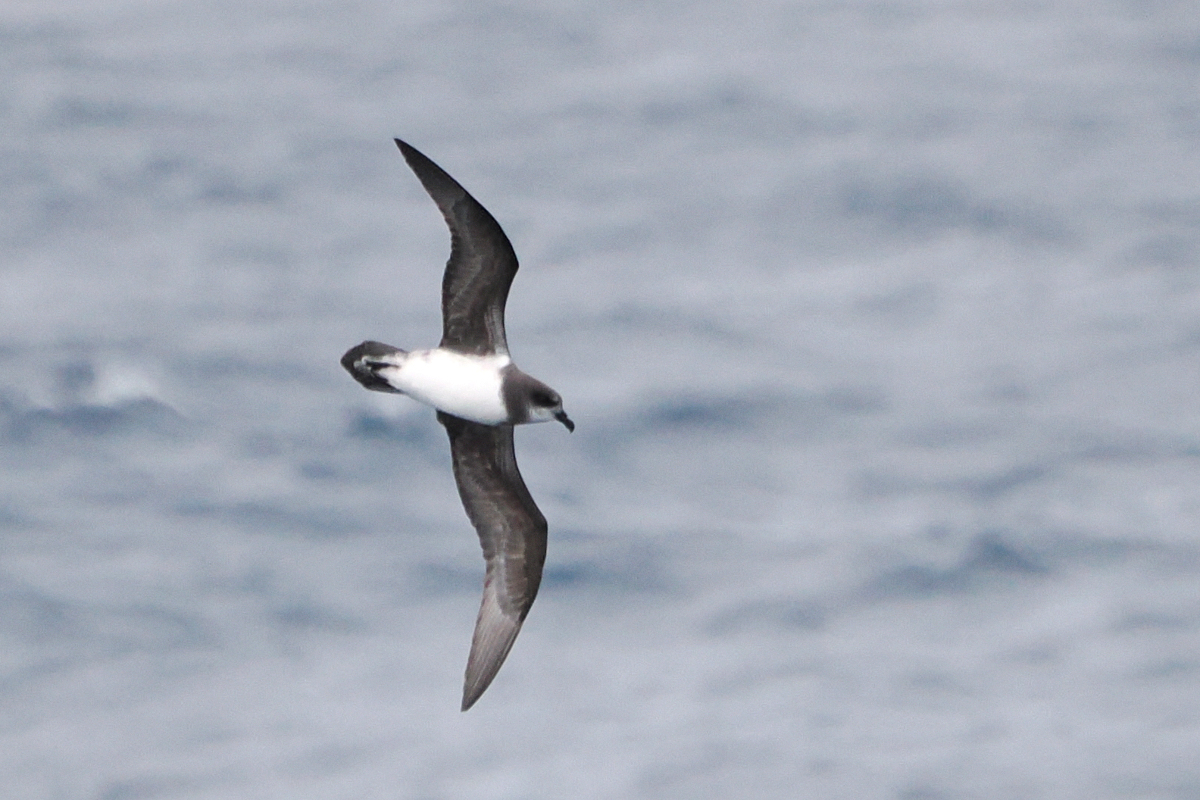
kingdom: Animalia
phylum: Chordata
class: Aves
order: Procellariiformes
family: Procellariidae
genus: Pterodroma
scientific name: Pterodroma mollis
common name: Soft-plumaged petrel
